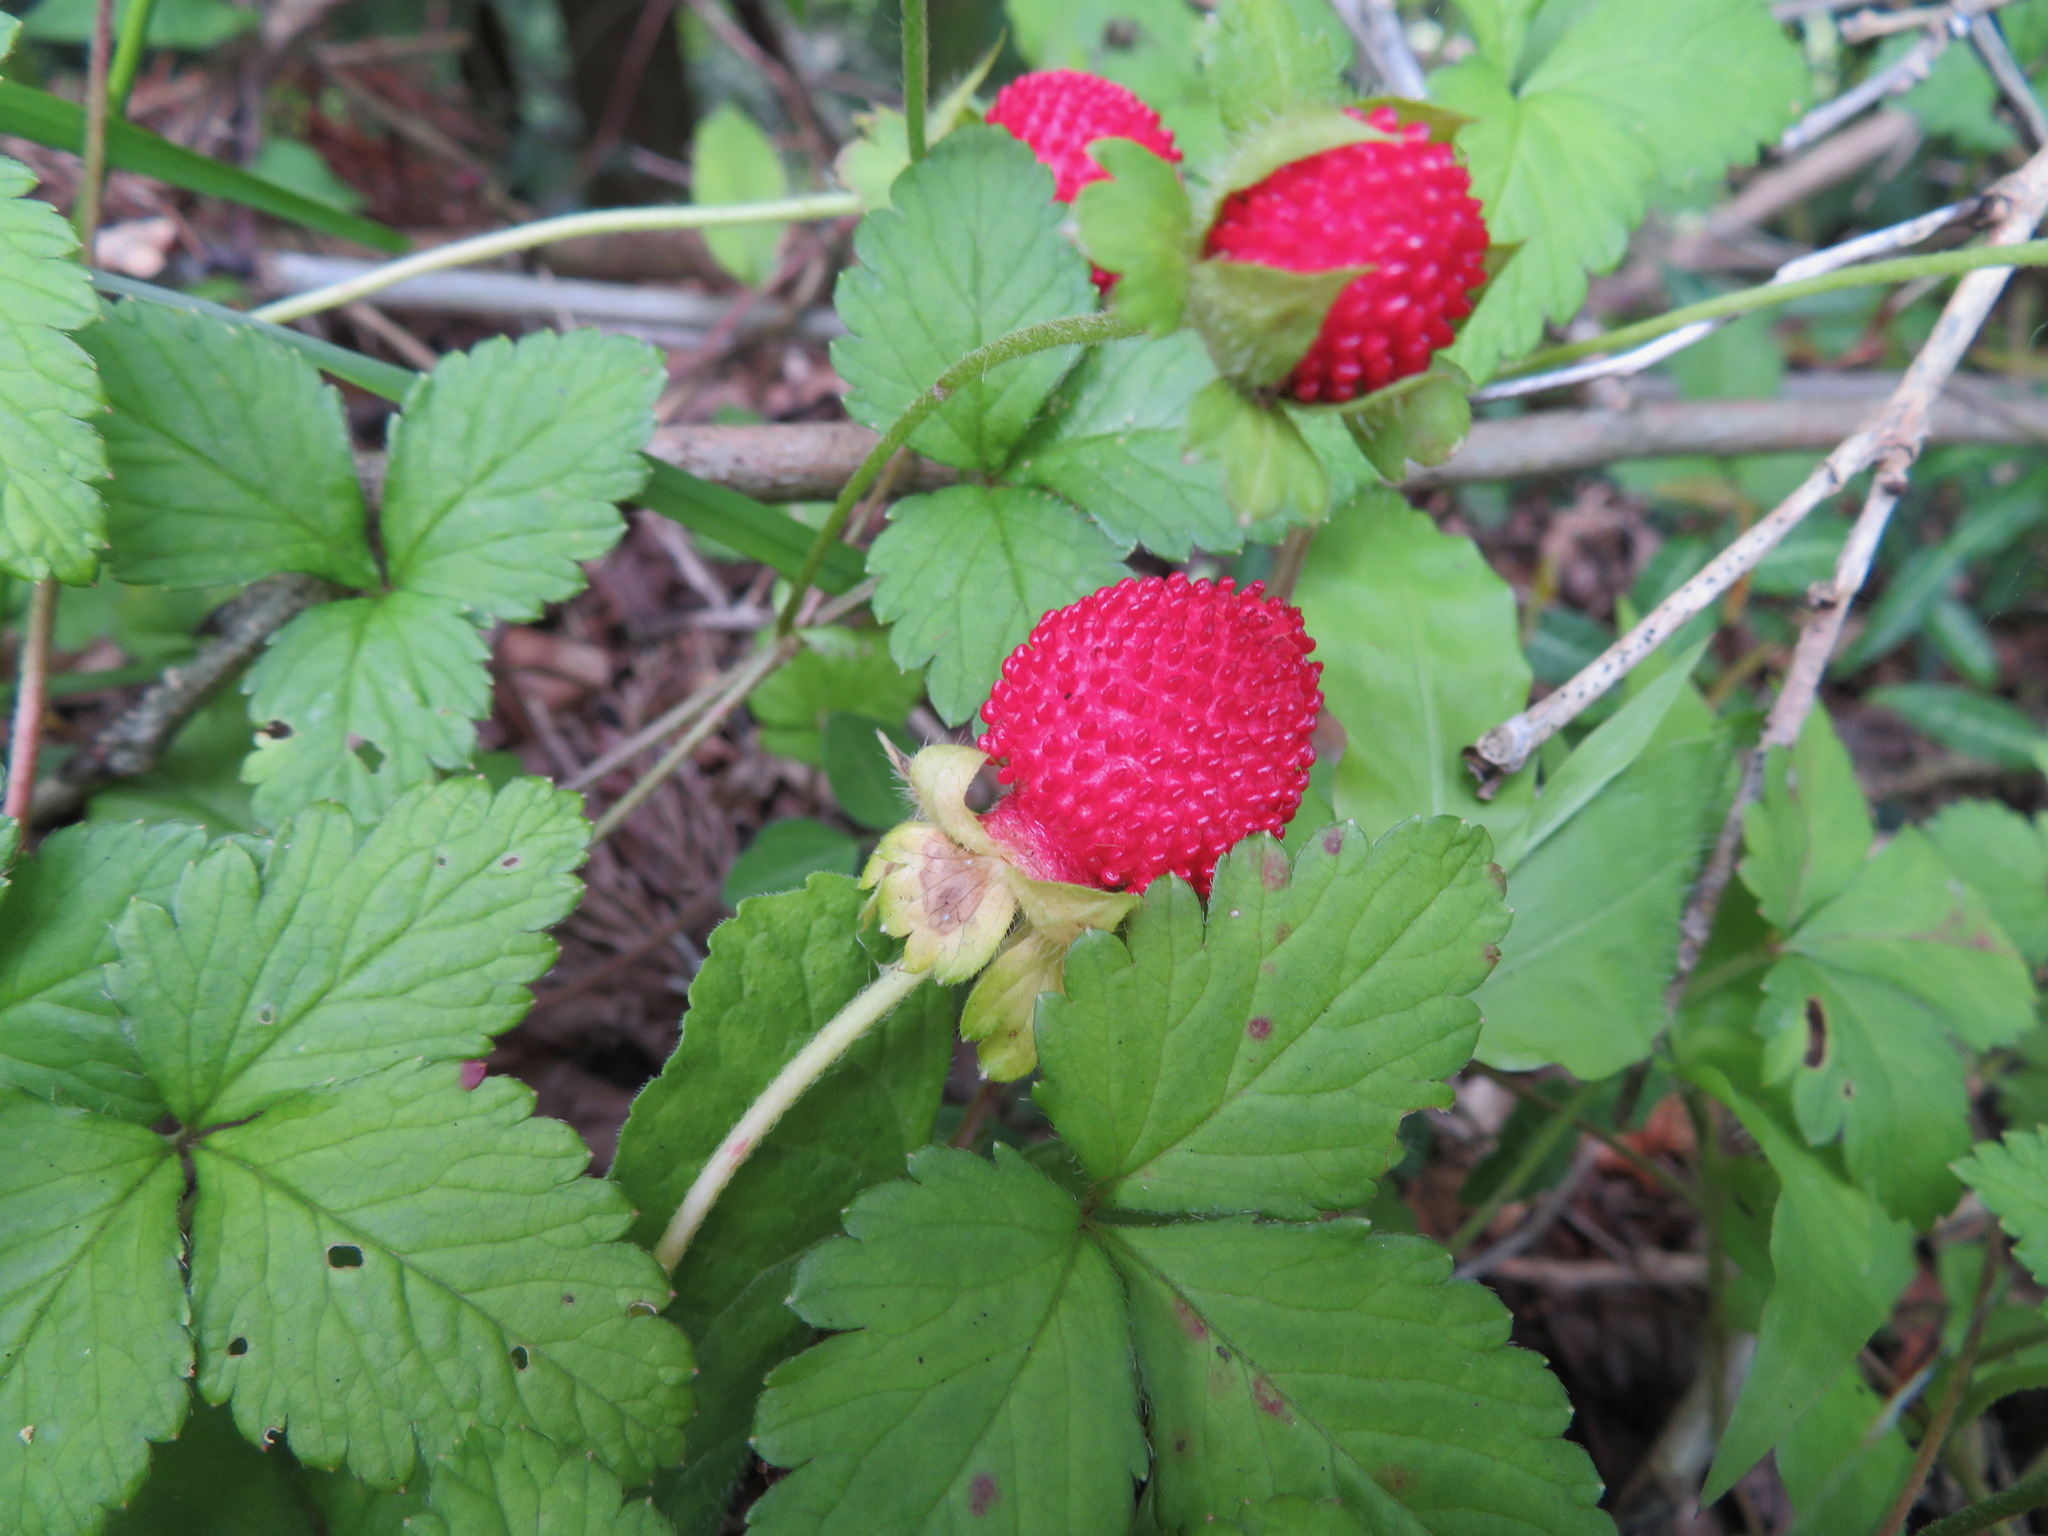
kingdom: Plantae
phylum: Tracheophyta
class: Magnoliopsida
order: Rosales
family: Rosaceae
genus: Potentilla
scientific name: Potentilla indica
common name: Yellow-flowered strawberry
